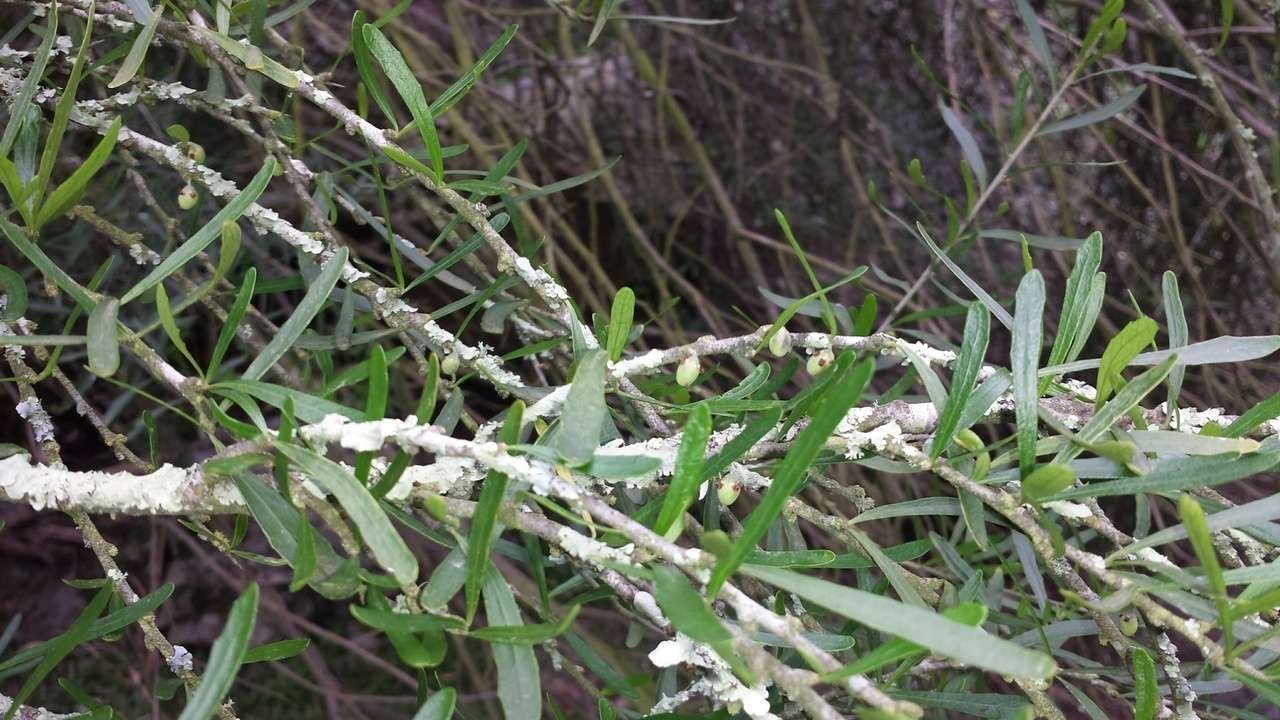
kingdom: Plantae
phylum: Tracheophyta
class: Magnoliopsida
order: Malpighiales
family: Violaceae
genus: Melicytus
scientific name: Melicytus dentatus
